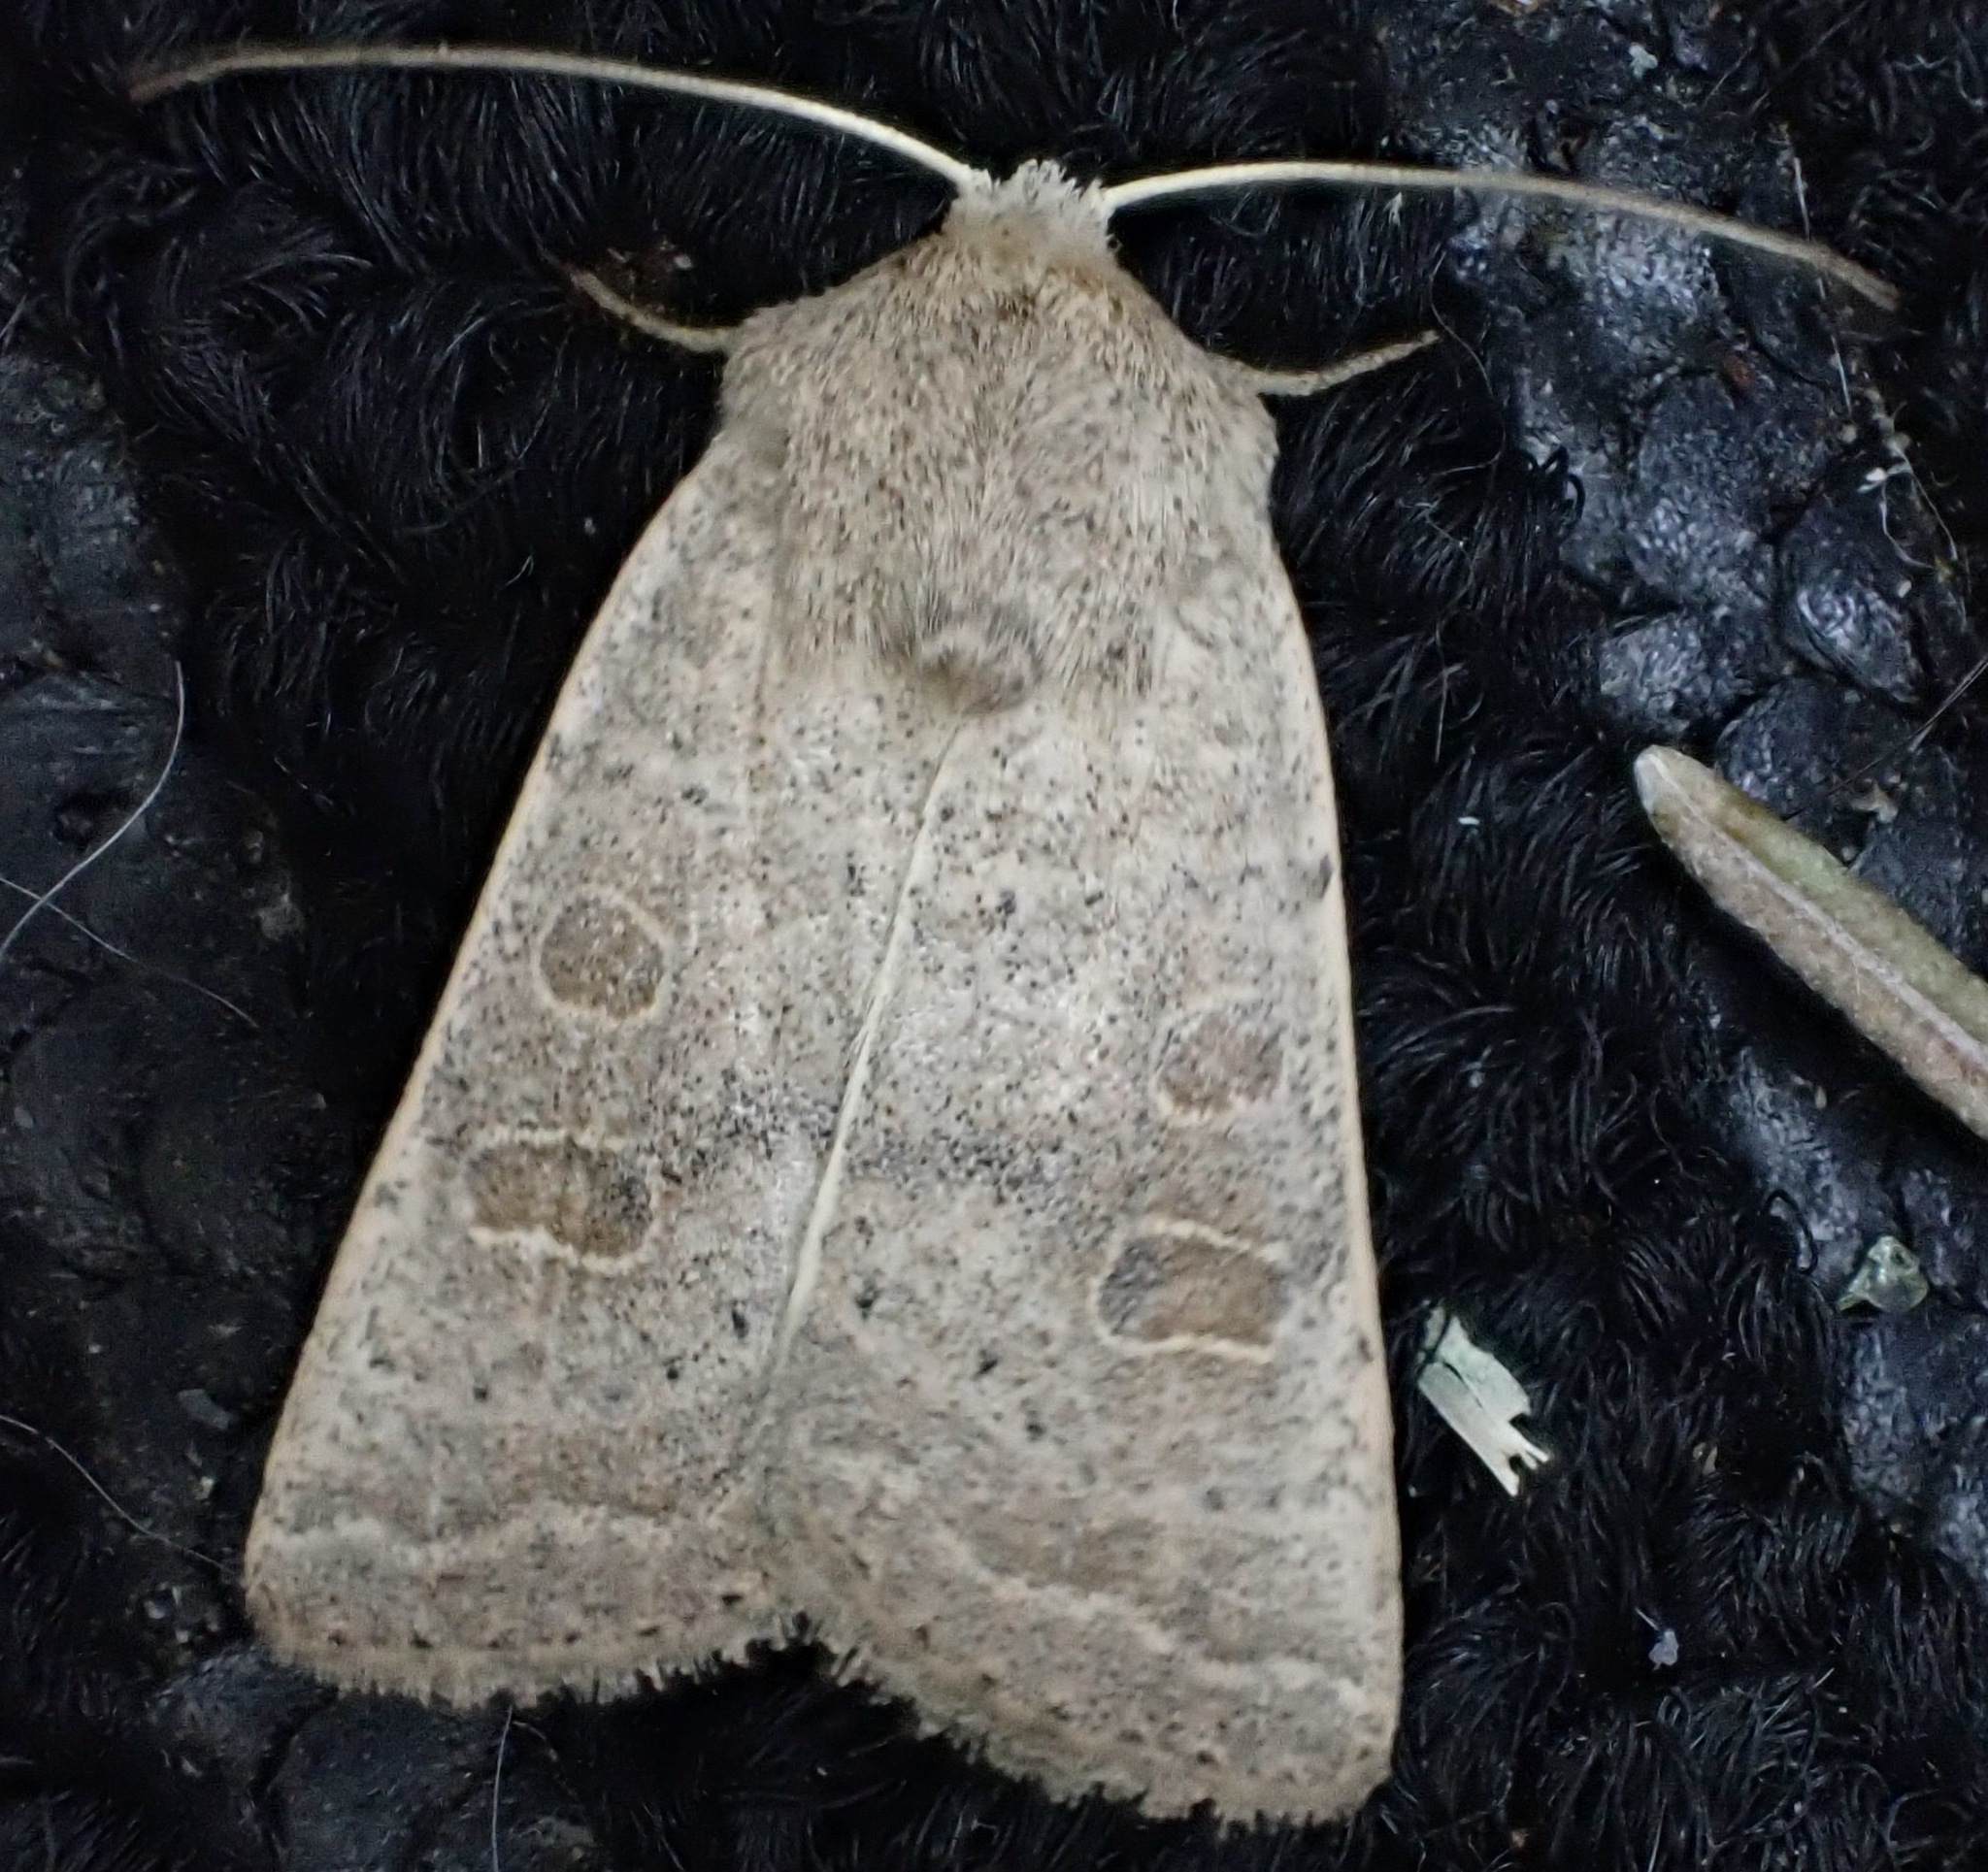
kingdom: Animalia
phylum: Arthropoda
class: Insecta
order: Lepidoptera
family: Noctuidae
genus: Hoplodrina
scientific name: Hoplodrina ambigua
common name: Vine's rustic
